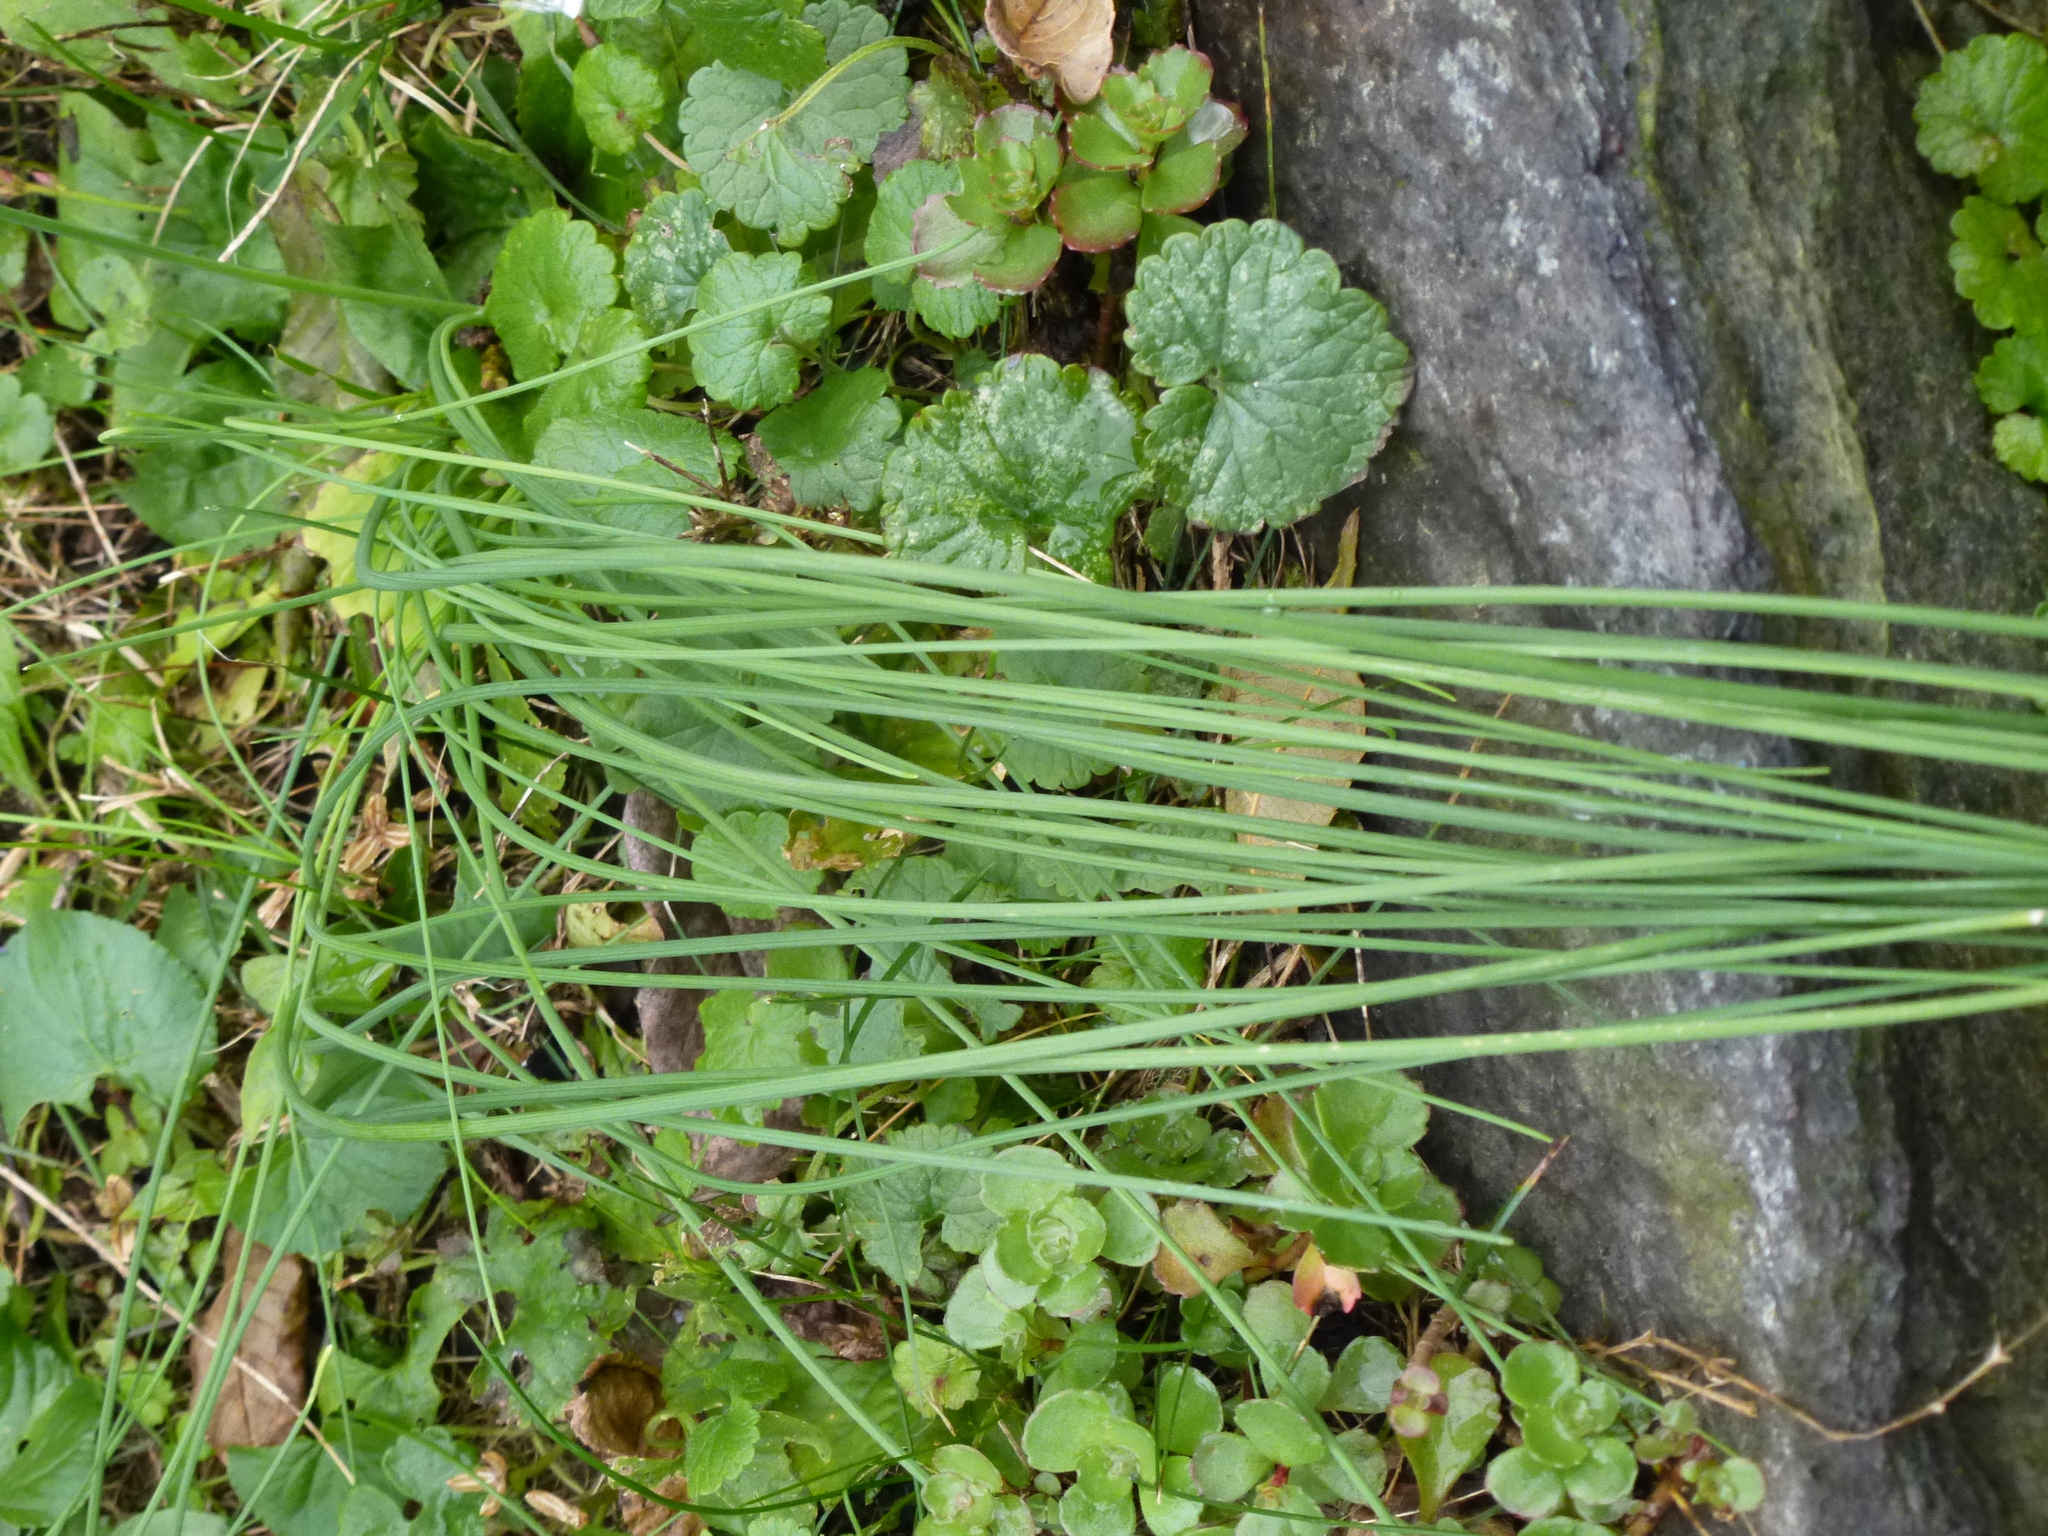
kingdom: Plantae
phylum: Tracheophyta
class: Liliopsida
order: Asparagales
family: Amaryllidaceae
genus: Allium
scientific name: Allium vineale
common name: Crow garlic
